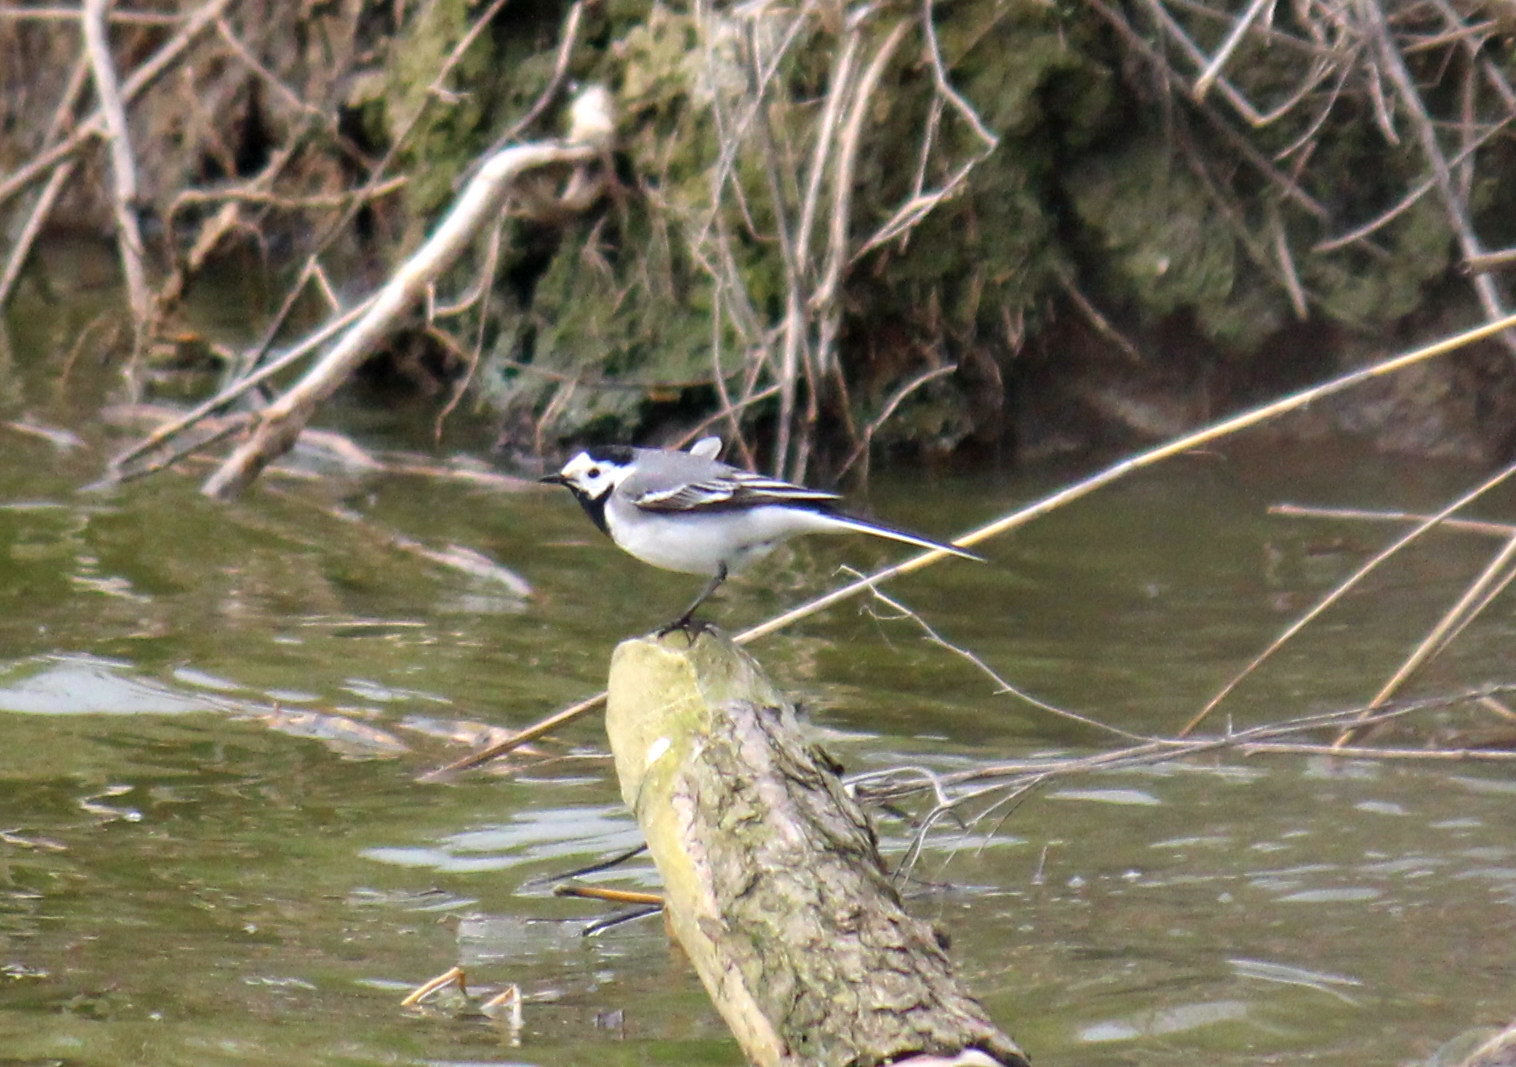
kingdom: Animalia
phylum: Chordata
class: Aves
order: Passeriformes
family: Motacillidae
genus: Motacilla
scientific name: Motacilla alba
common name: White wagtail
